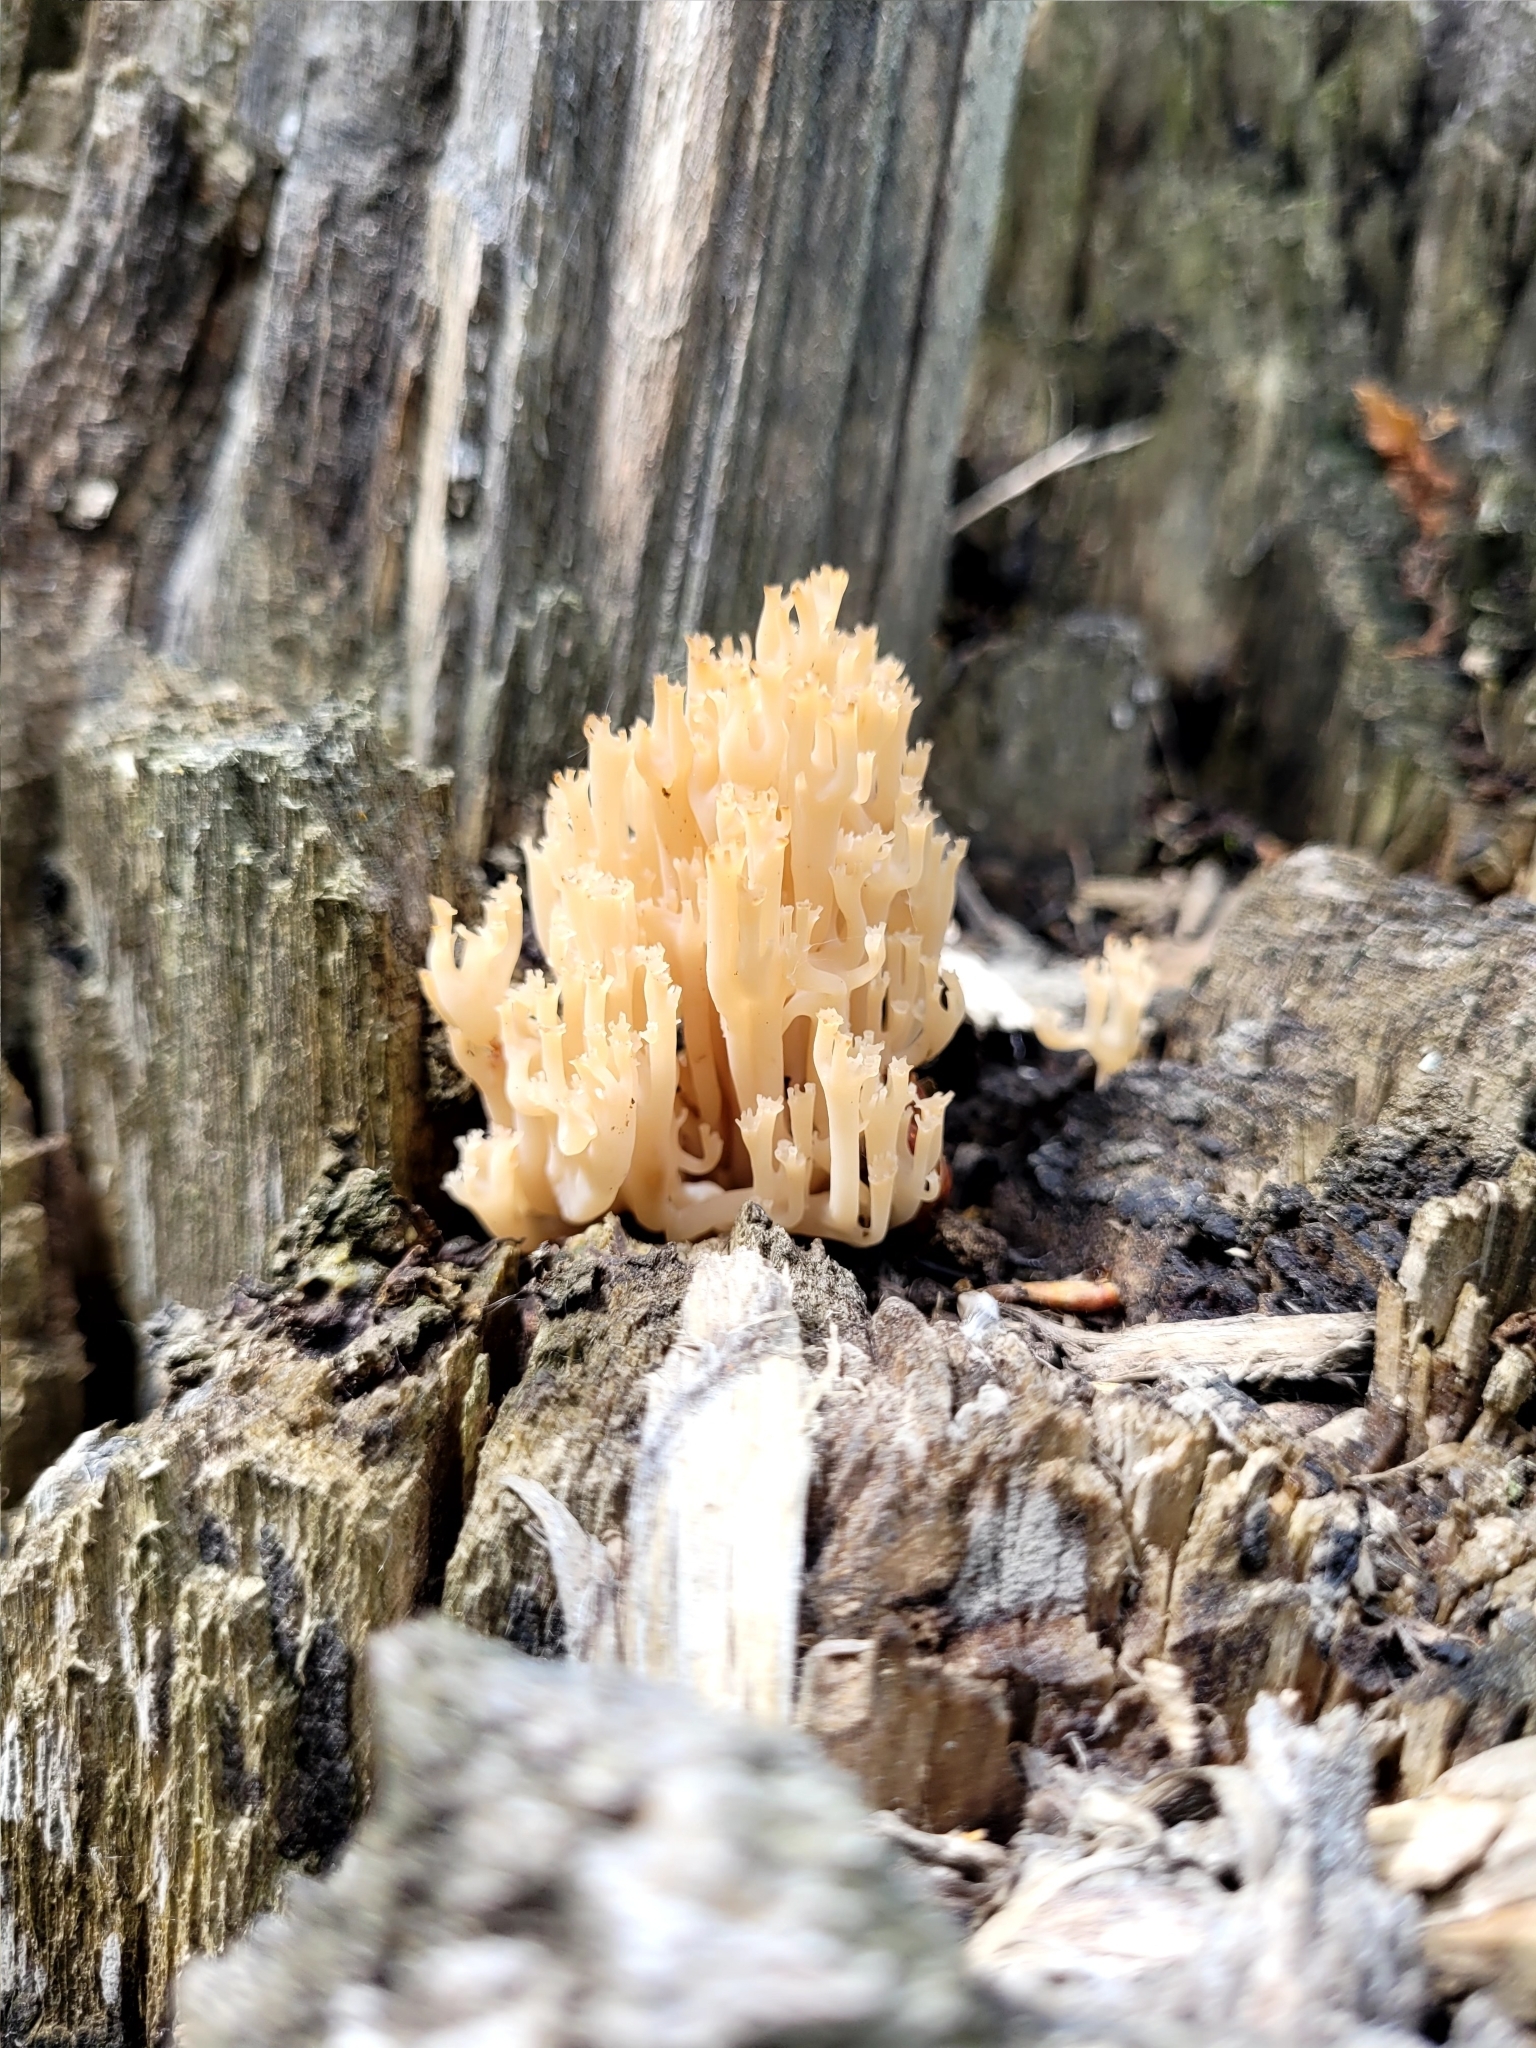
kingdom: Fungi
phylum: Basidiomycota
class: Agaricomycetes
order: Russulales
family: Auriscalpiaceae
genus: Artomyces
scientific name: Artomyces pyxidatus
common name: Crown-tipped coral fungus
